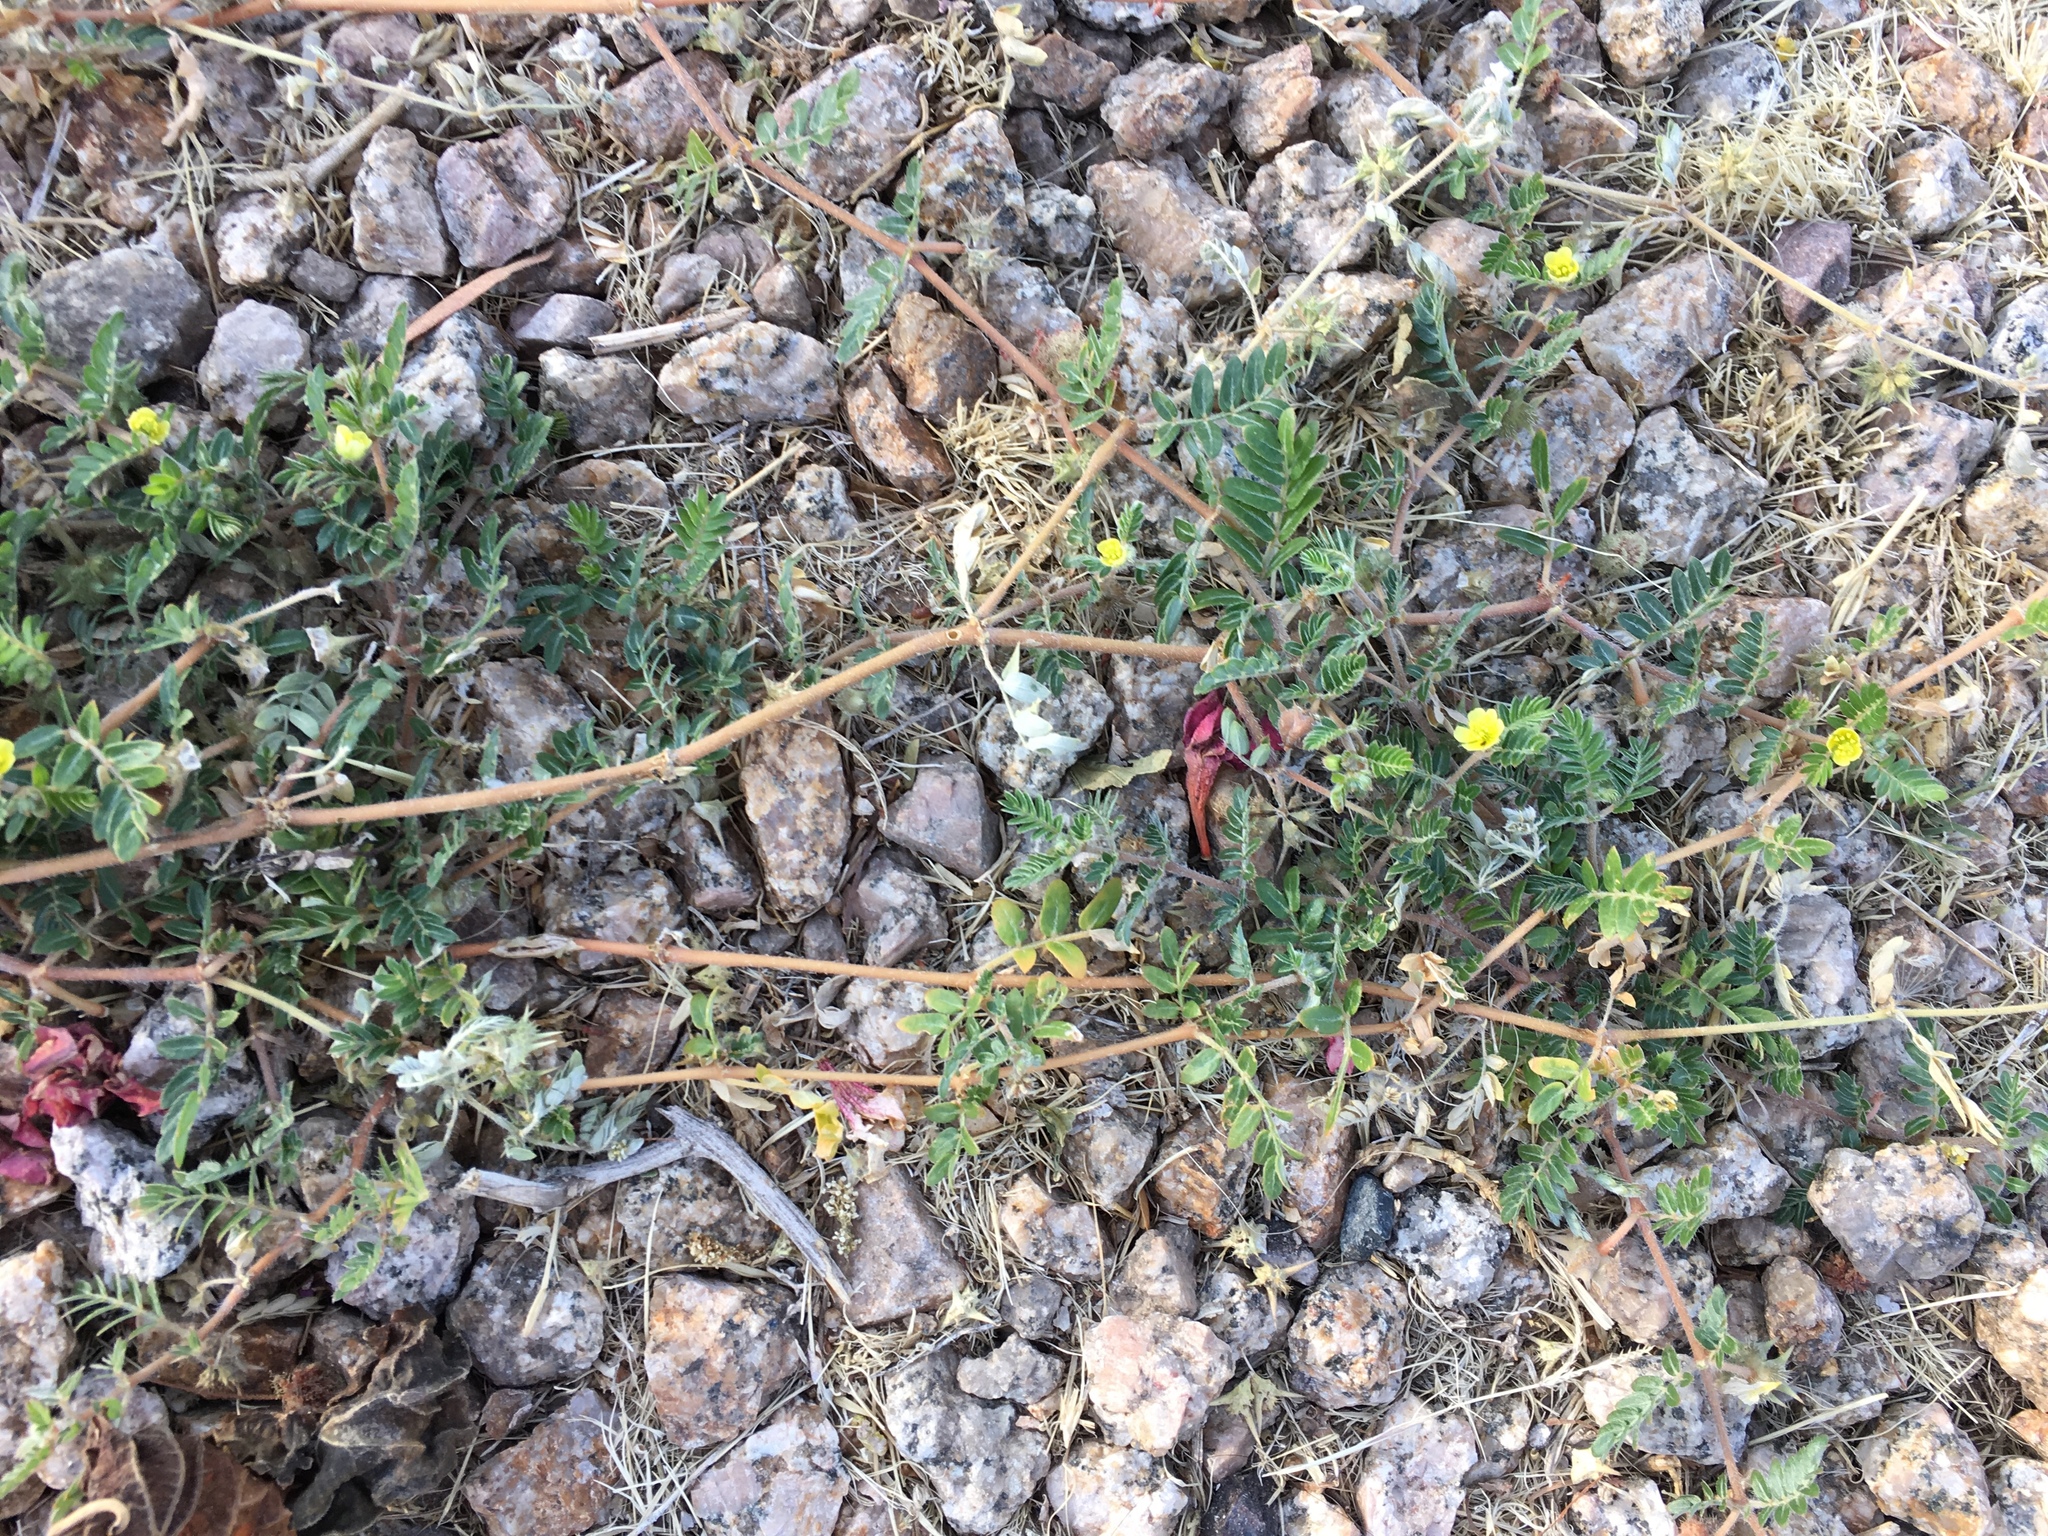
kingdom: Plantae
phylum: Tracheophyta
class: Magnoliopsida
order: Zygophyllales
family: Zygophyllaceae
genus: Tribulus
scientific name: Tribulus terrestris
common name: Puncturevine
